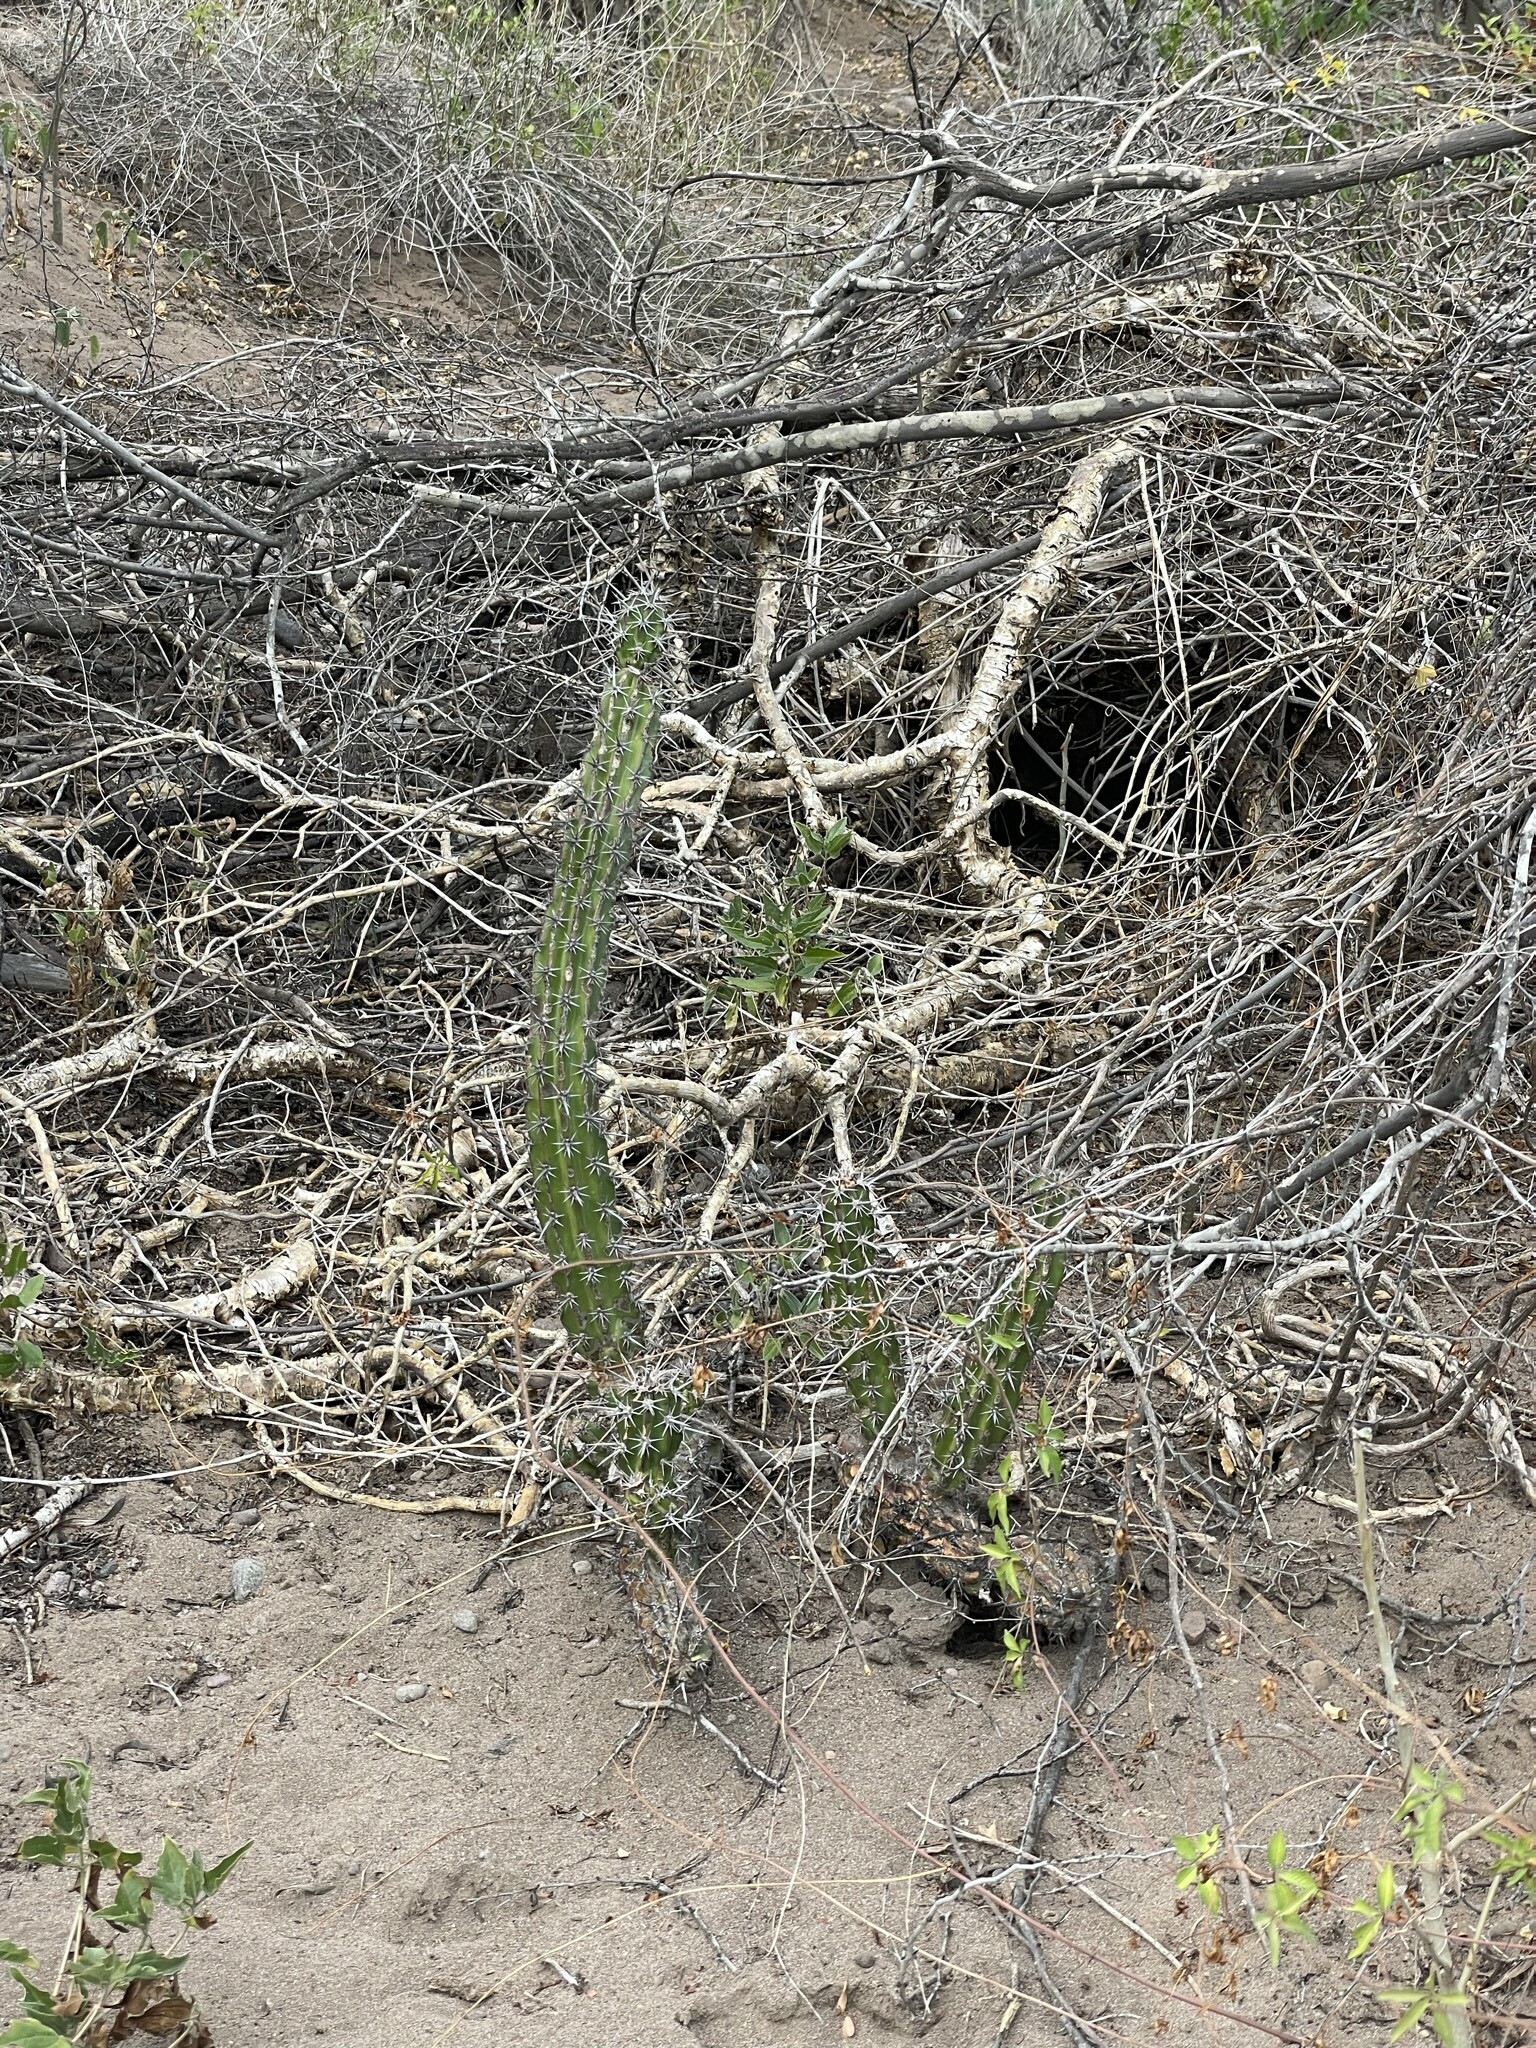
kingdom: Plantae
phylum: Tracheophyta
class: Magnoliopsida
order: Caryophyllales
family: Cactaceae
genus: Stenocereus
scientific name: Stenocereus gummosus
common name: Dagger cactus
